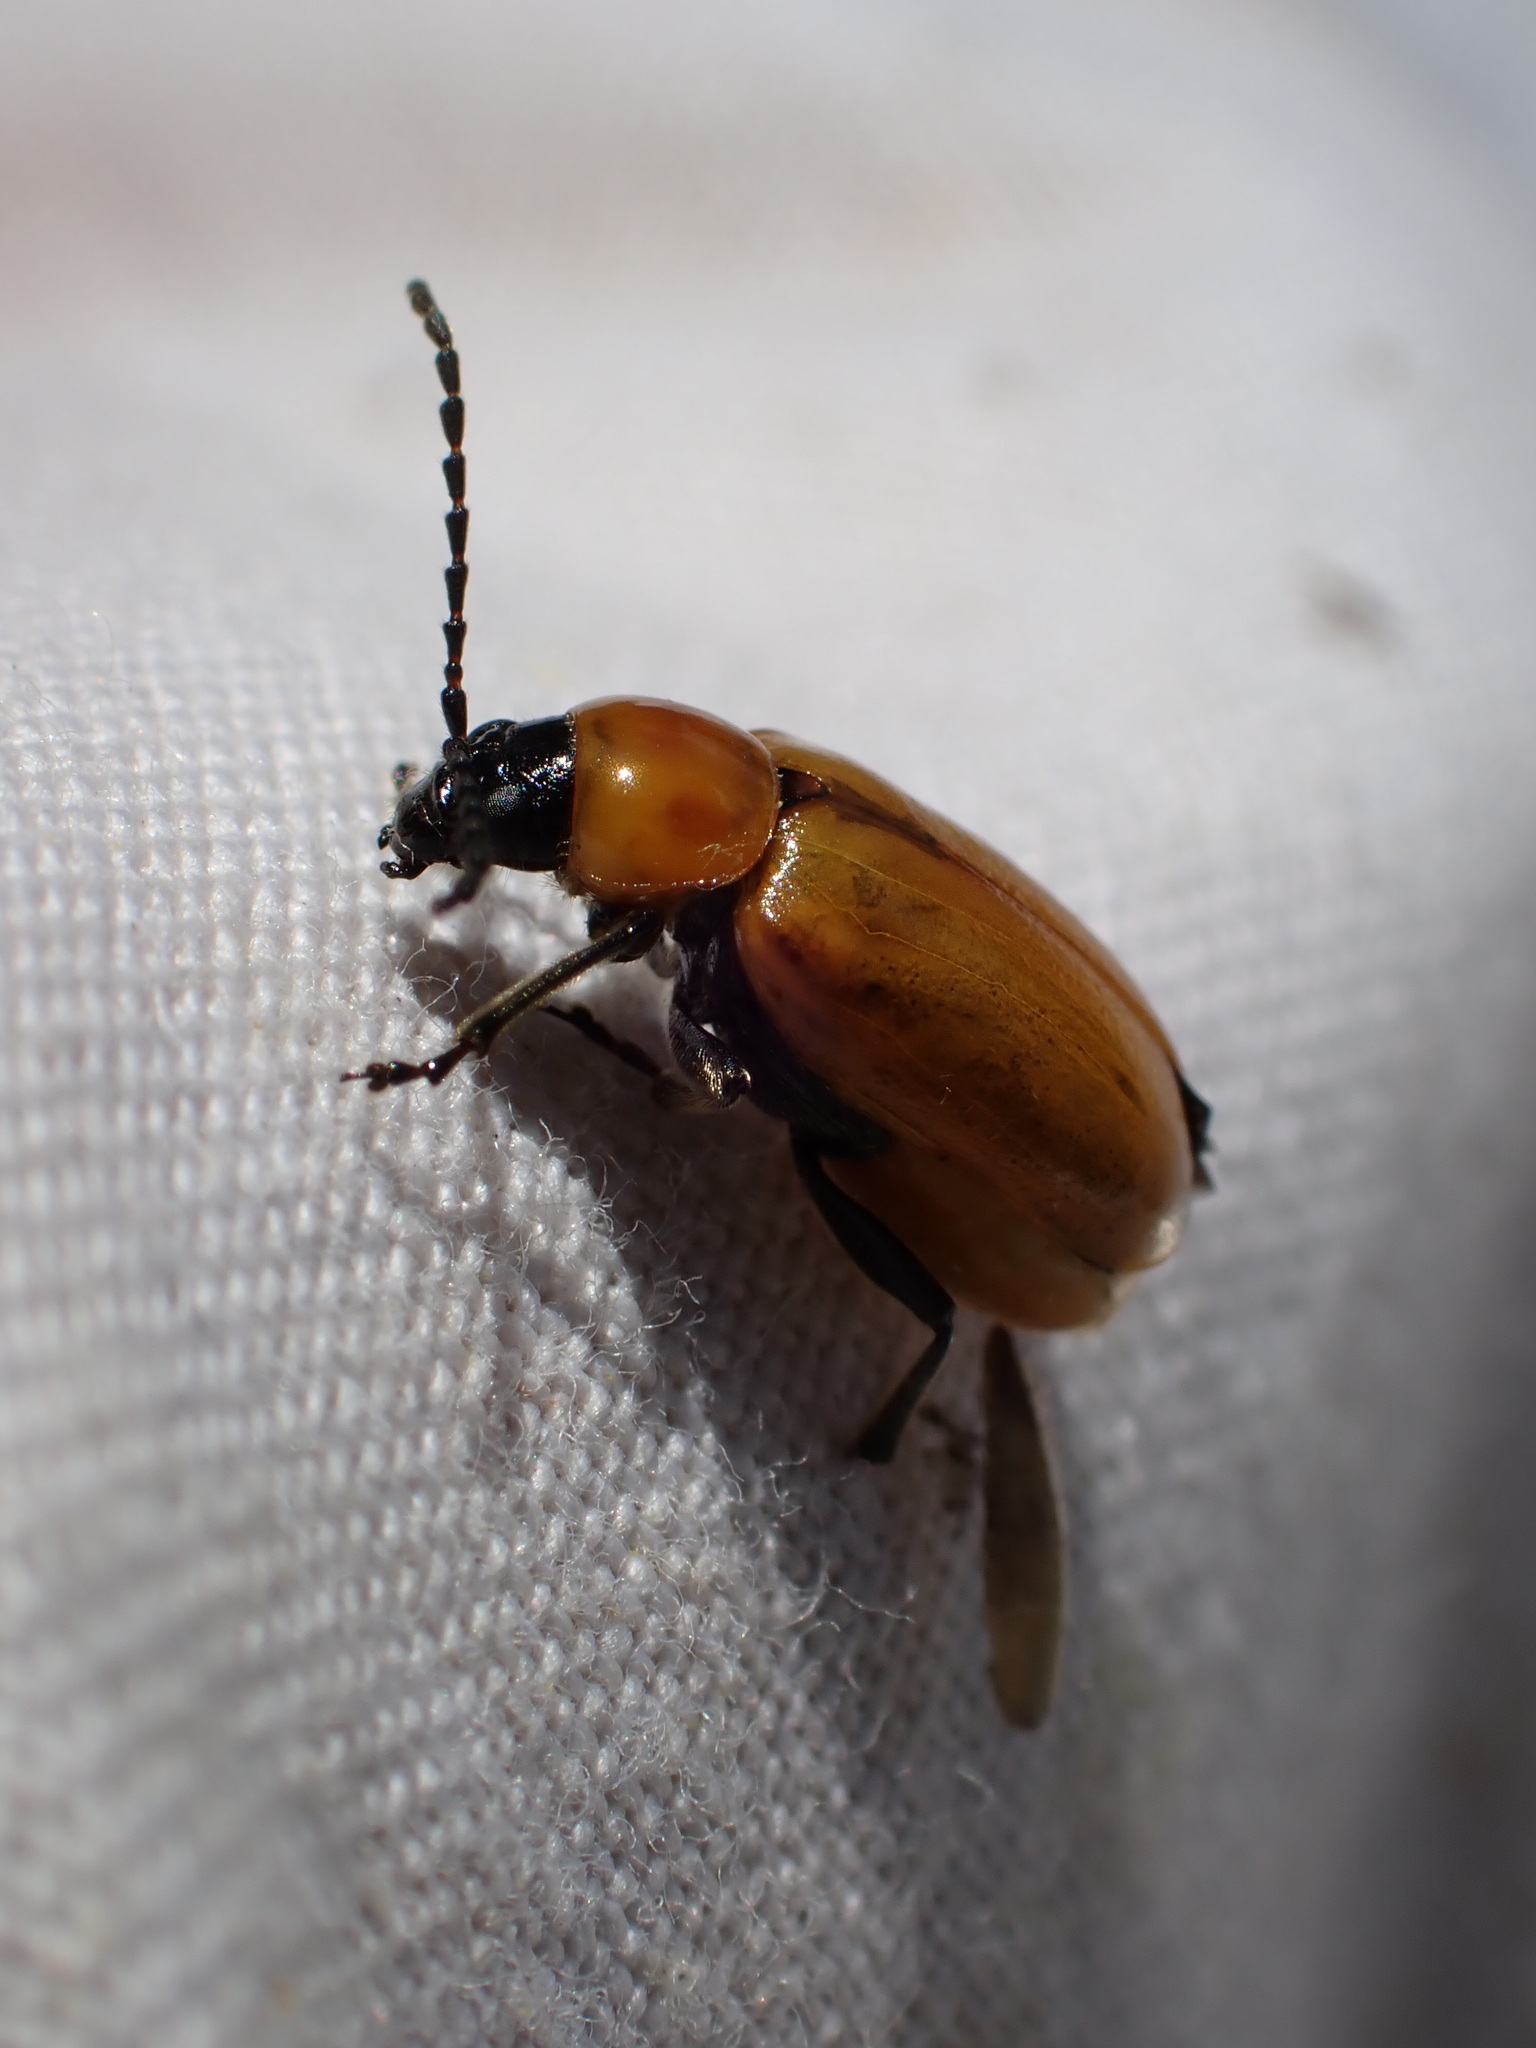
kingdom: Animalia
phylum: Arthropoda
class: Insecta
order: Coleoptera
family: Chrysomelidae
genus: Exosoma
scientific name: Exosoma lusitanicum
